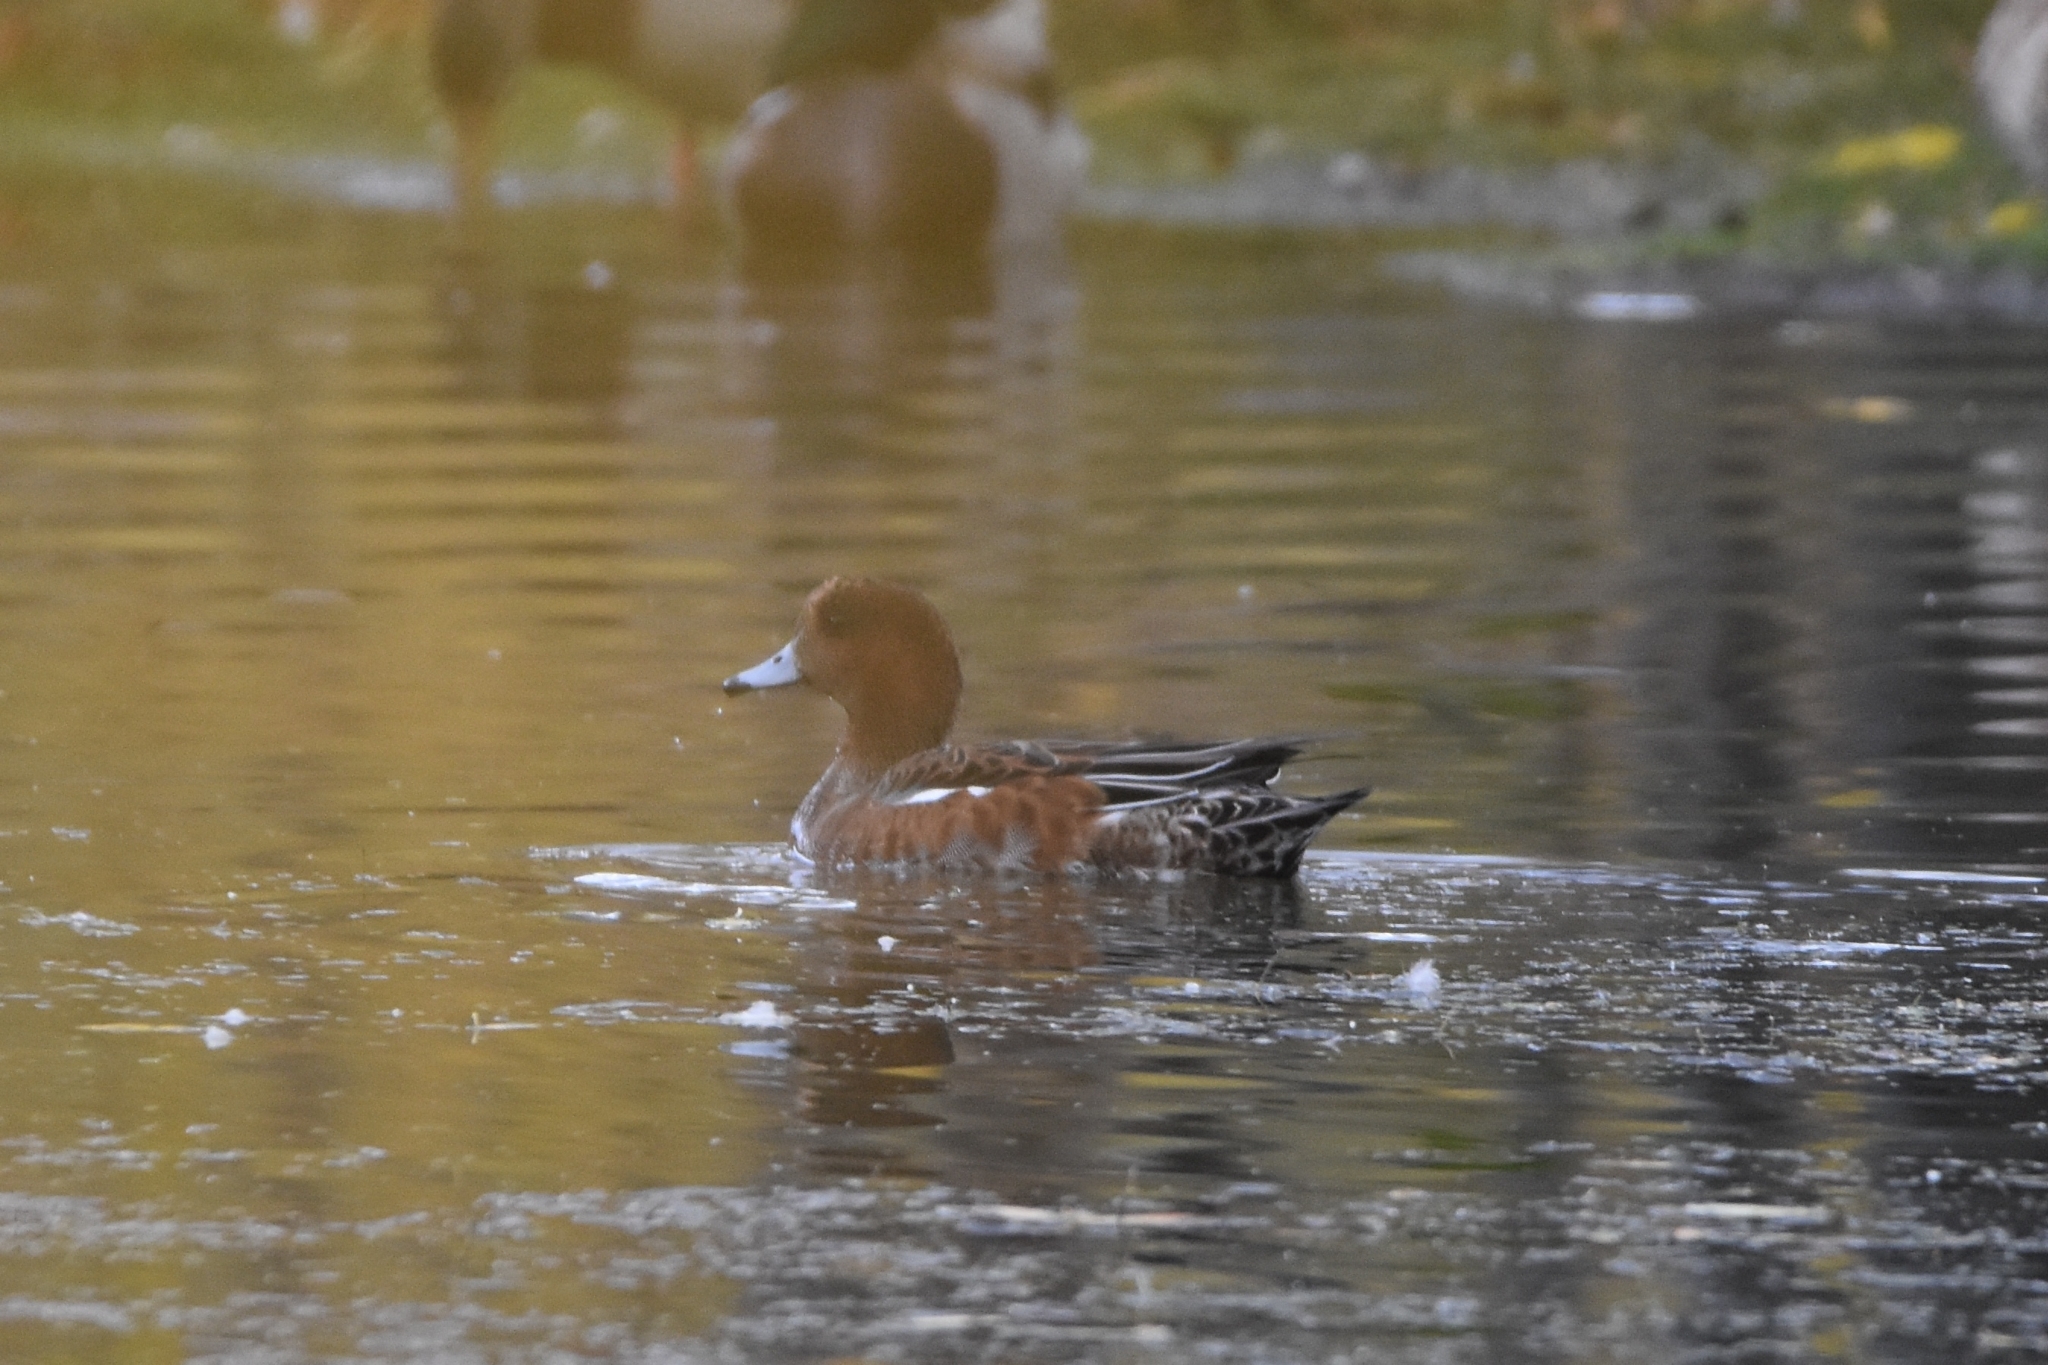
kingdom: Animalia
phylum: Chordata
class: Aves
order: Anseriformes
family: Anatidae
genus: Mareca
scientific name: Mareca penelope
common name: Eurasian wigeon
